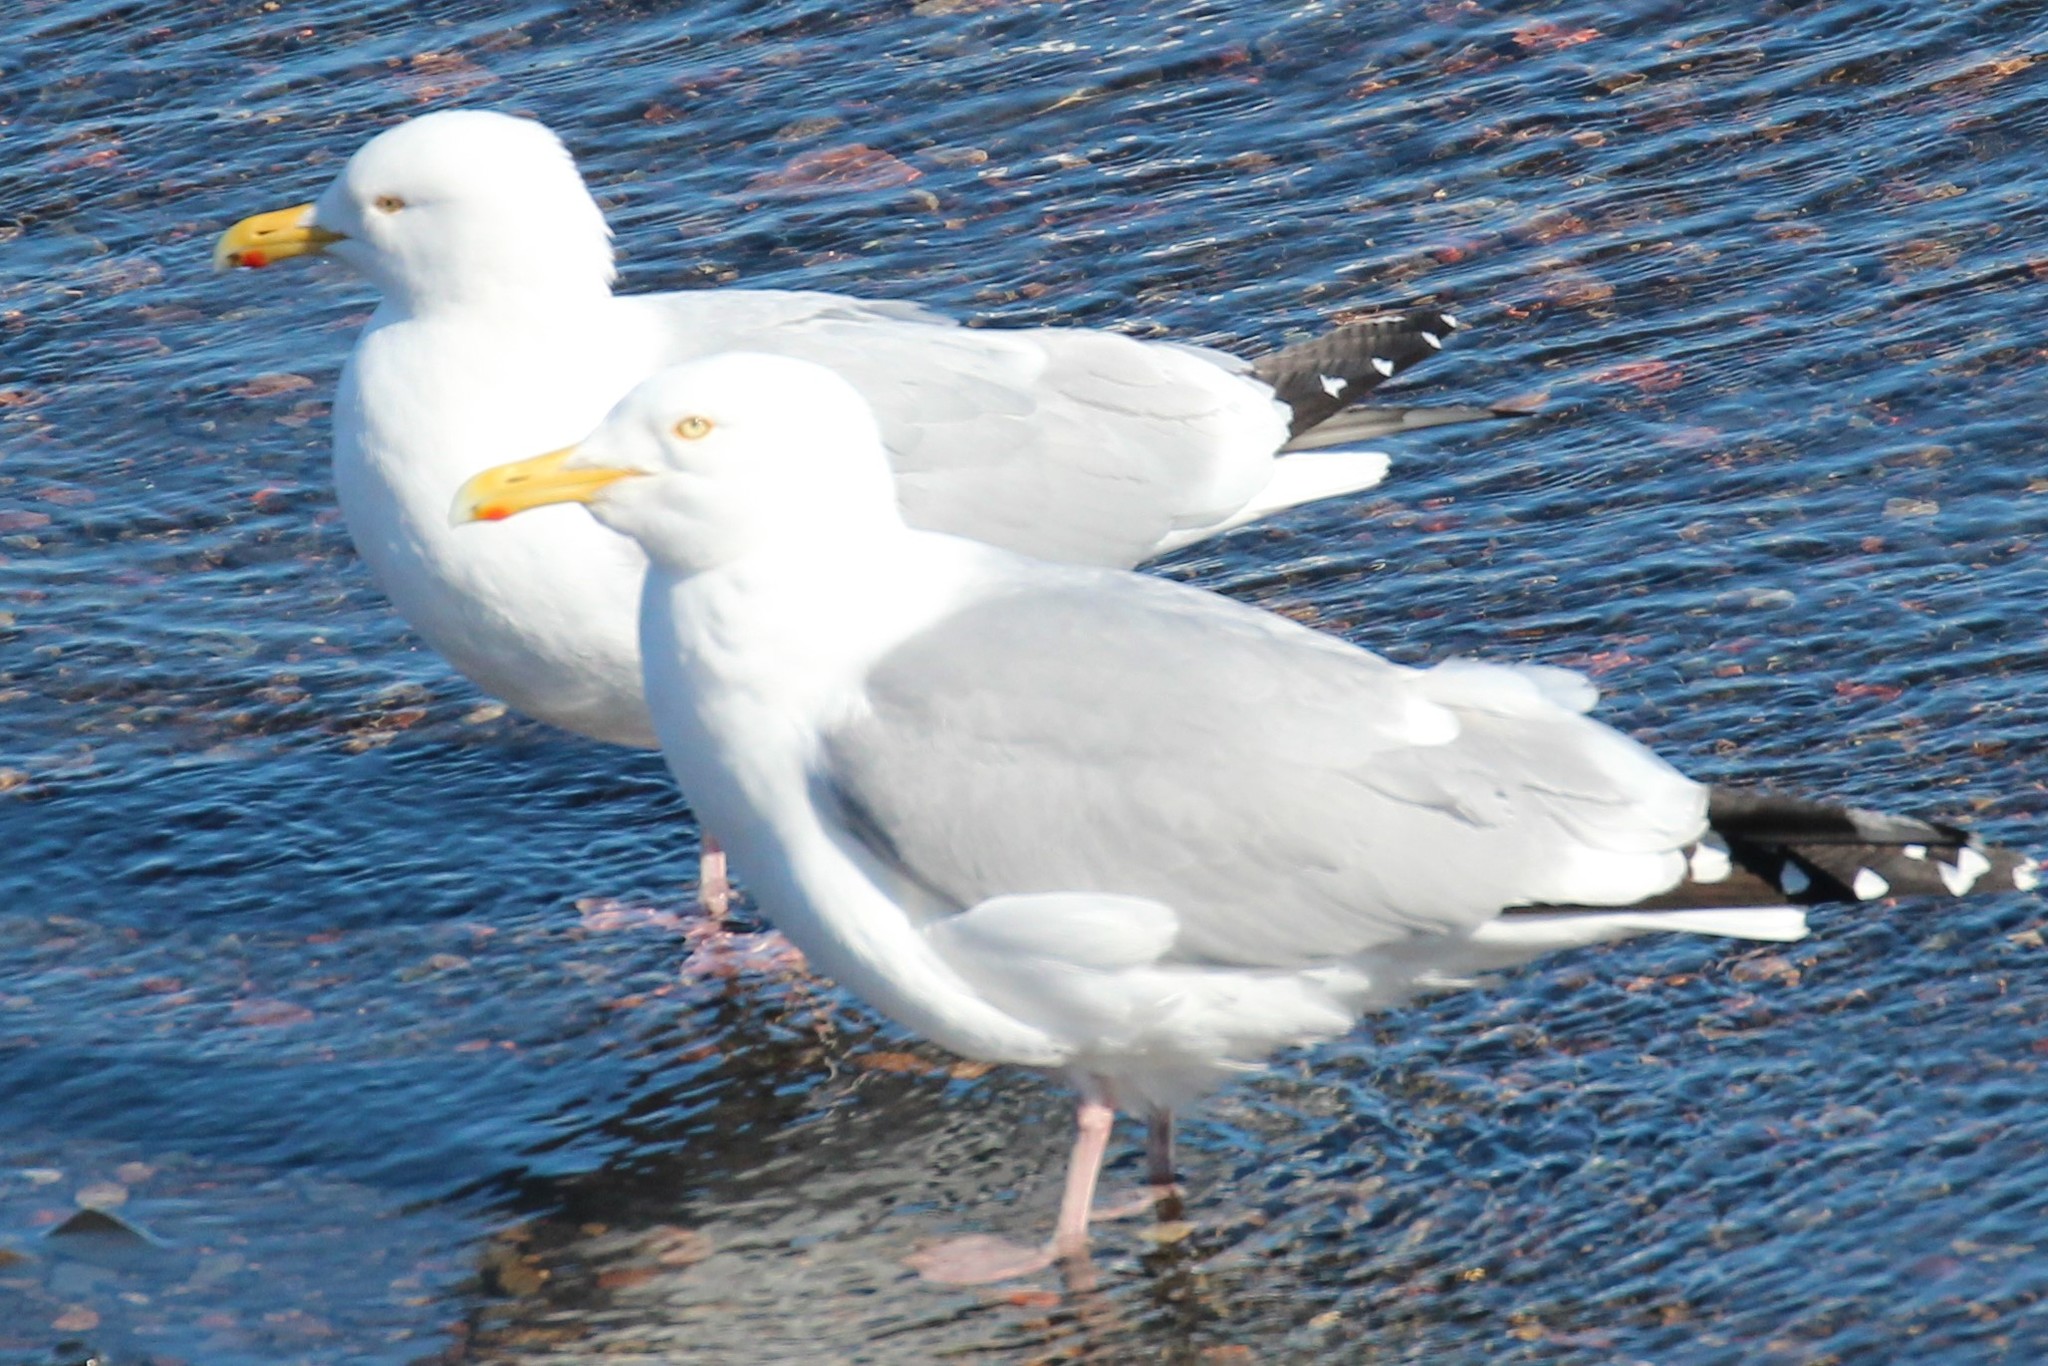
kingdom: Animalia
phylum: Chordata
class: Aves
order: Charadriiformes
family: Laridae
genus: Larus
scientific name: Larus argentatus
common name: Herring gull
